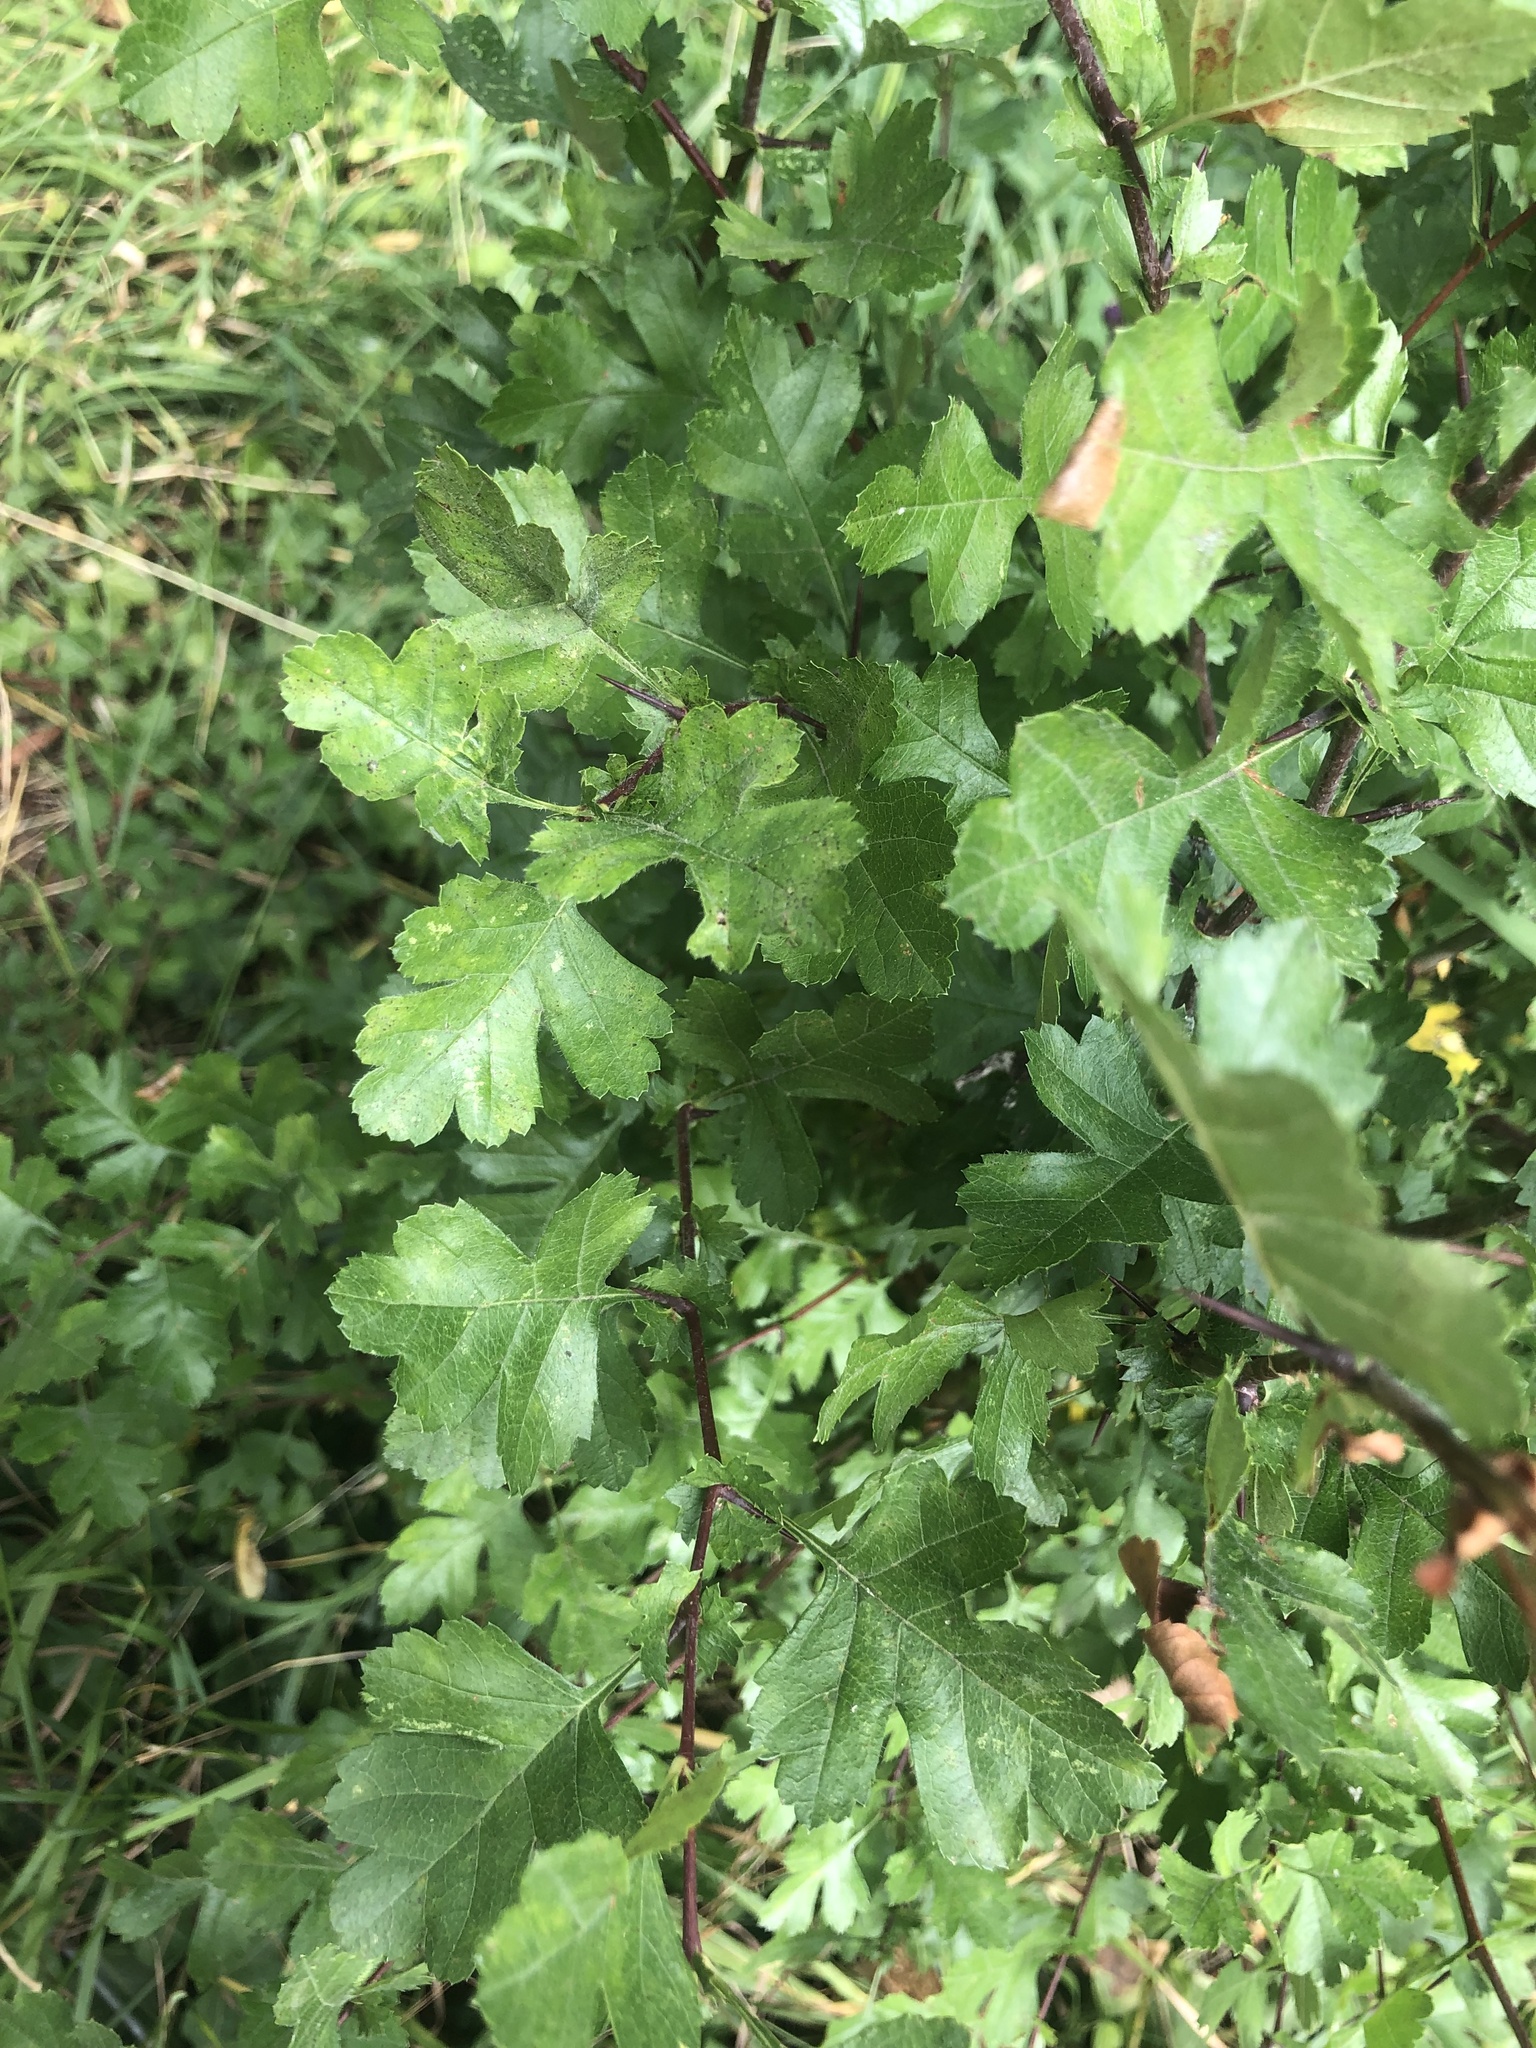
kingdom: Plantae
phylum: Tracheophyta
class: Magnoliopsida
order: Rosales
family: Rosaceae
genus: Crataegus
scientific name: Crataegus monogyna
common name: Hawthorn
